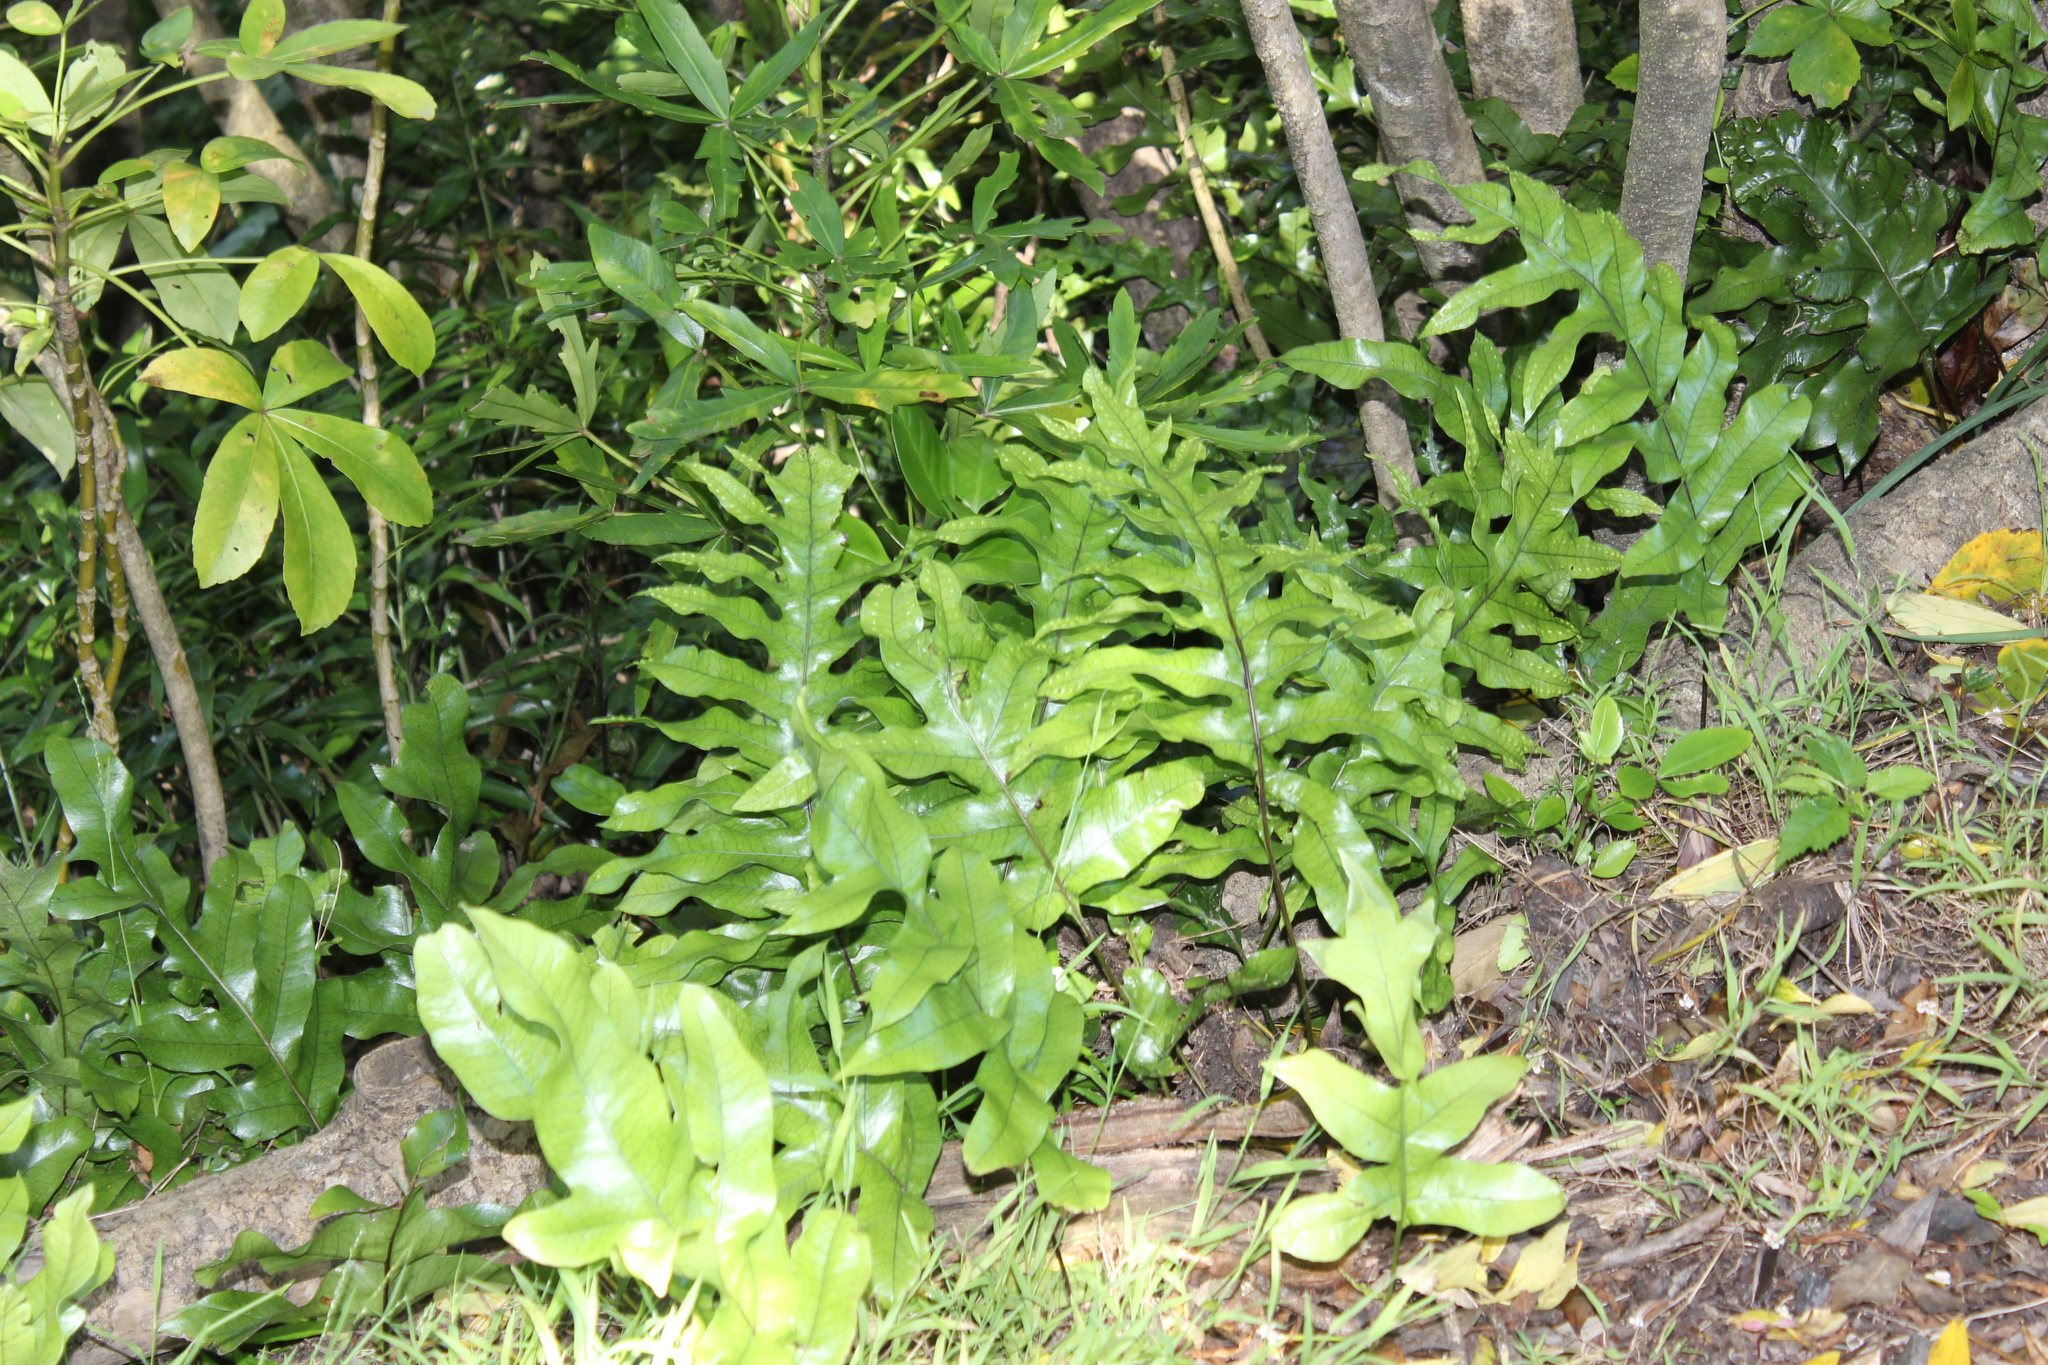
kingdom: Plantae
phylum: Tracheophyta
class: Polypodiopsida
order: Polypodiales
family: Polypodiaceae
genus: Lecanopteris
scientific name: Lecanopteris pustulata
